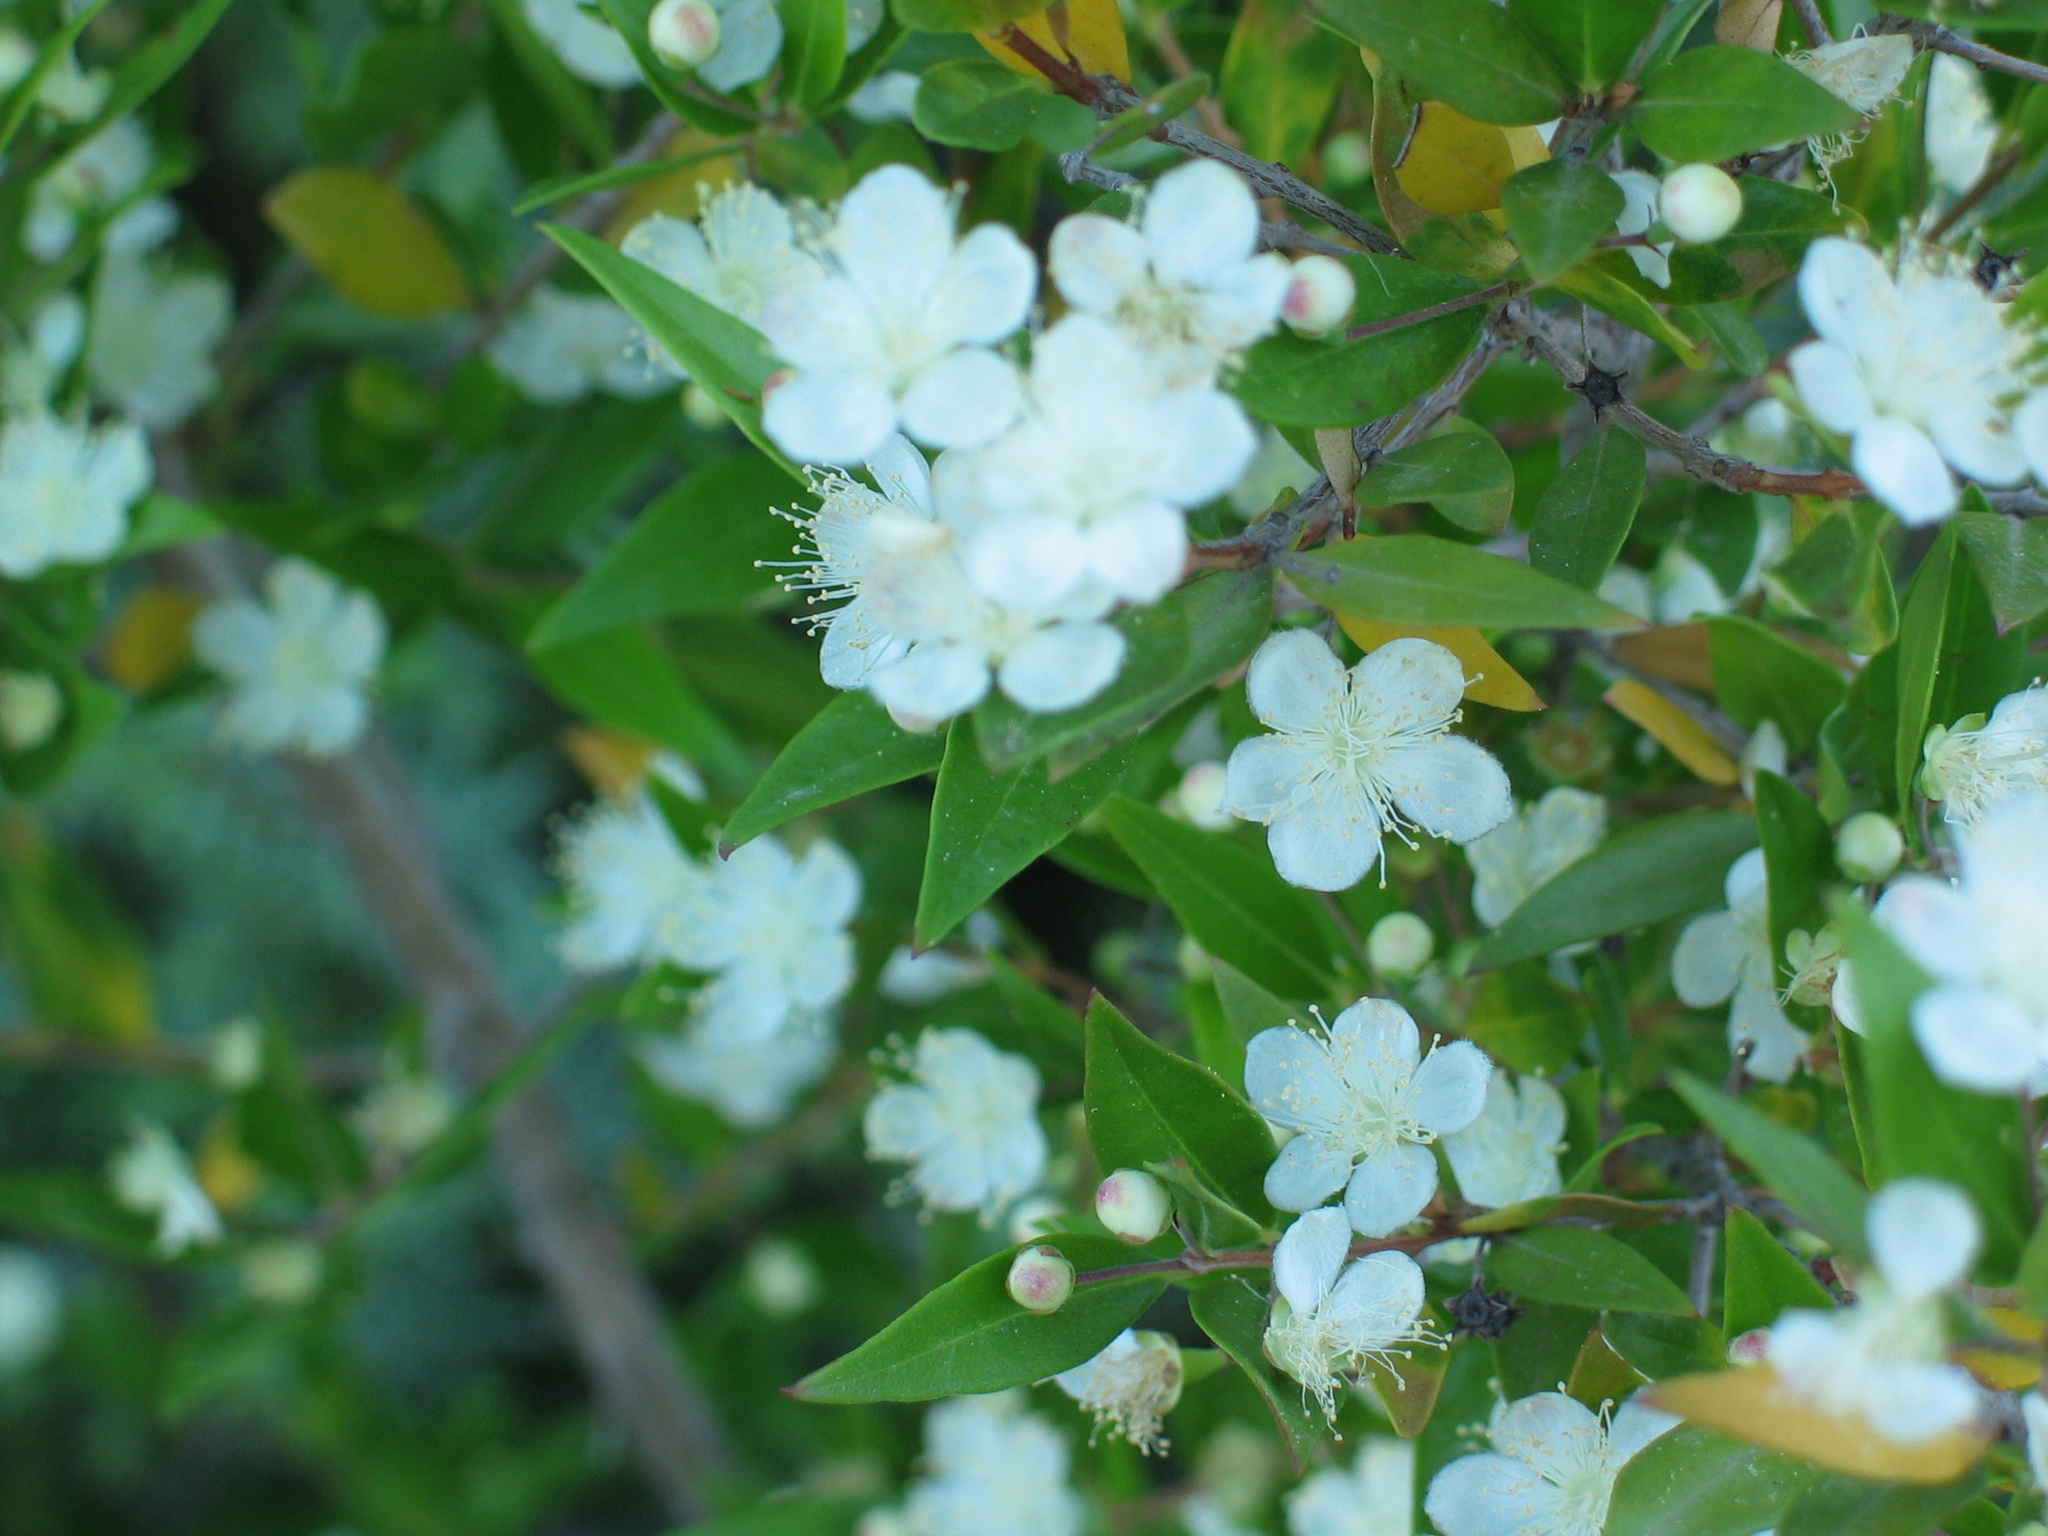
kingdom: Plantae
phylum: Tracheophyta
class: Magnoliopsida
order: Myrtales
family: Myrtaceae
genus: Myrtus
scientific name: Myrtus communis
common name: Myrtle
